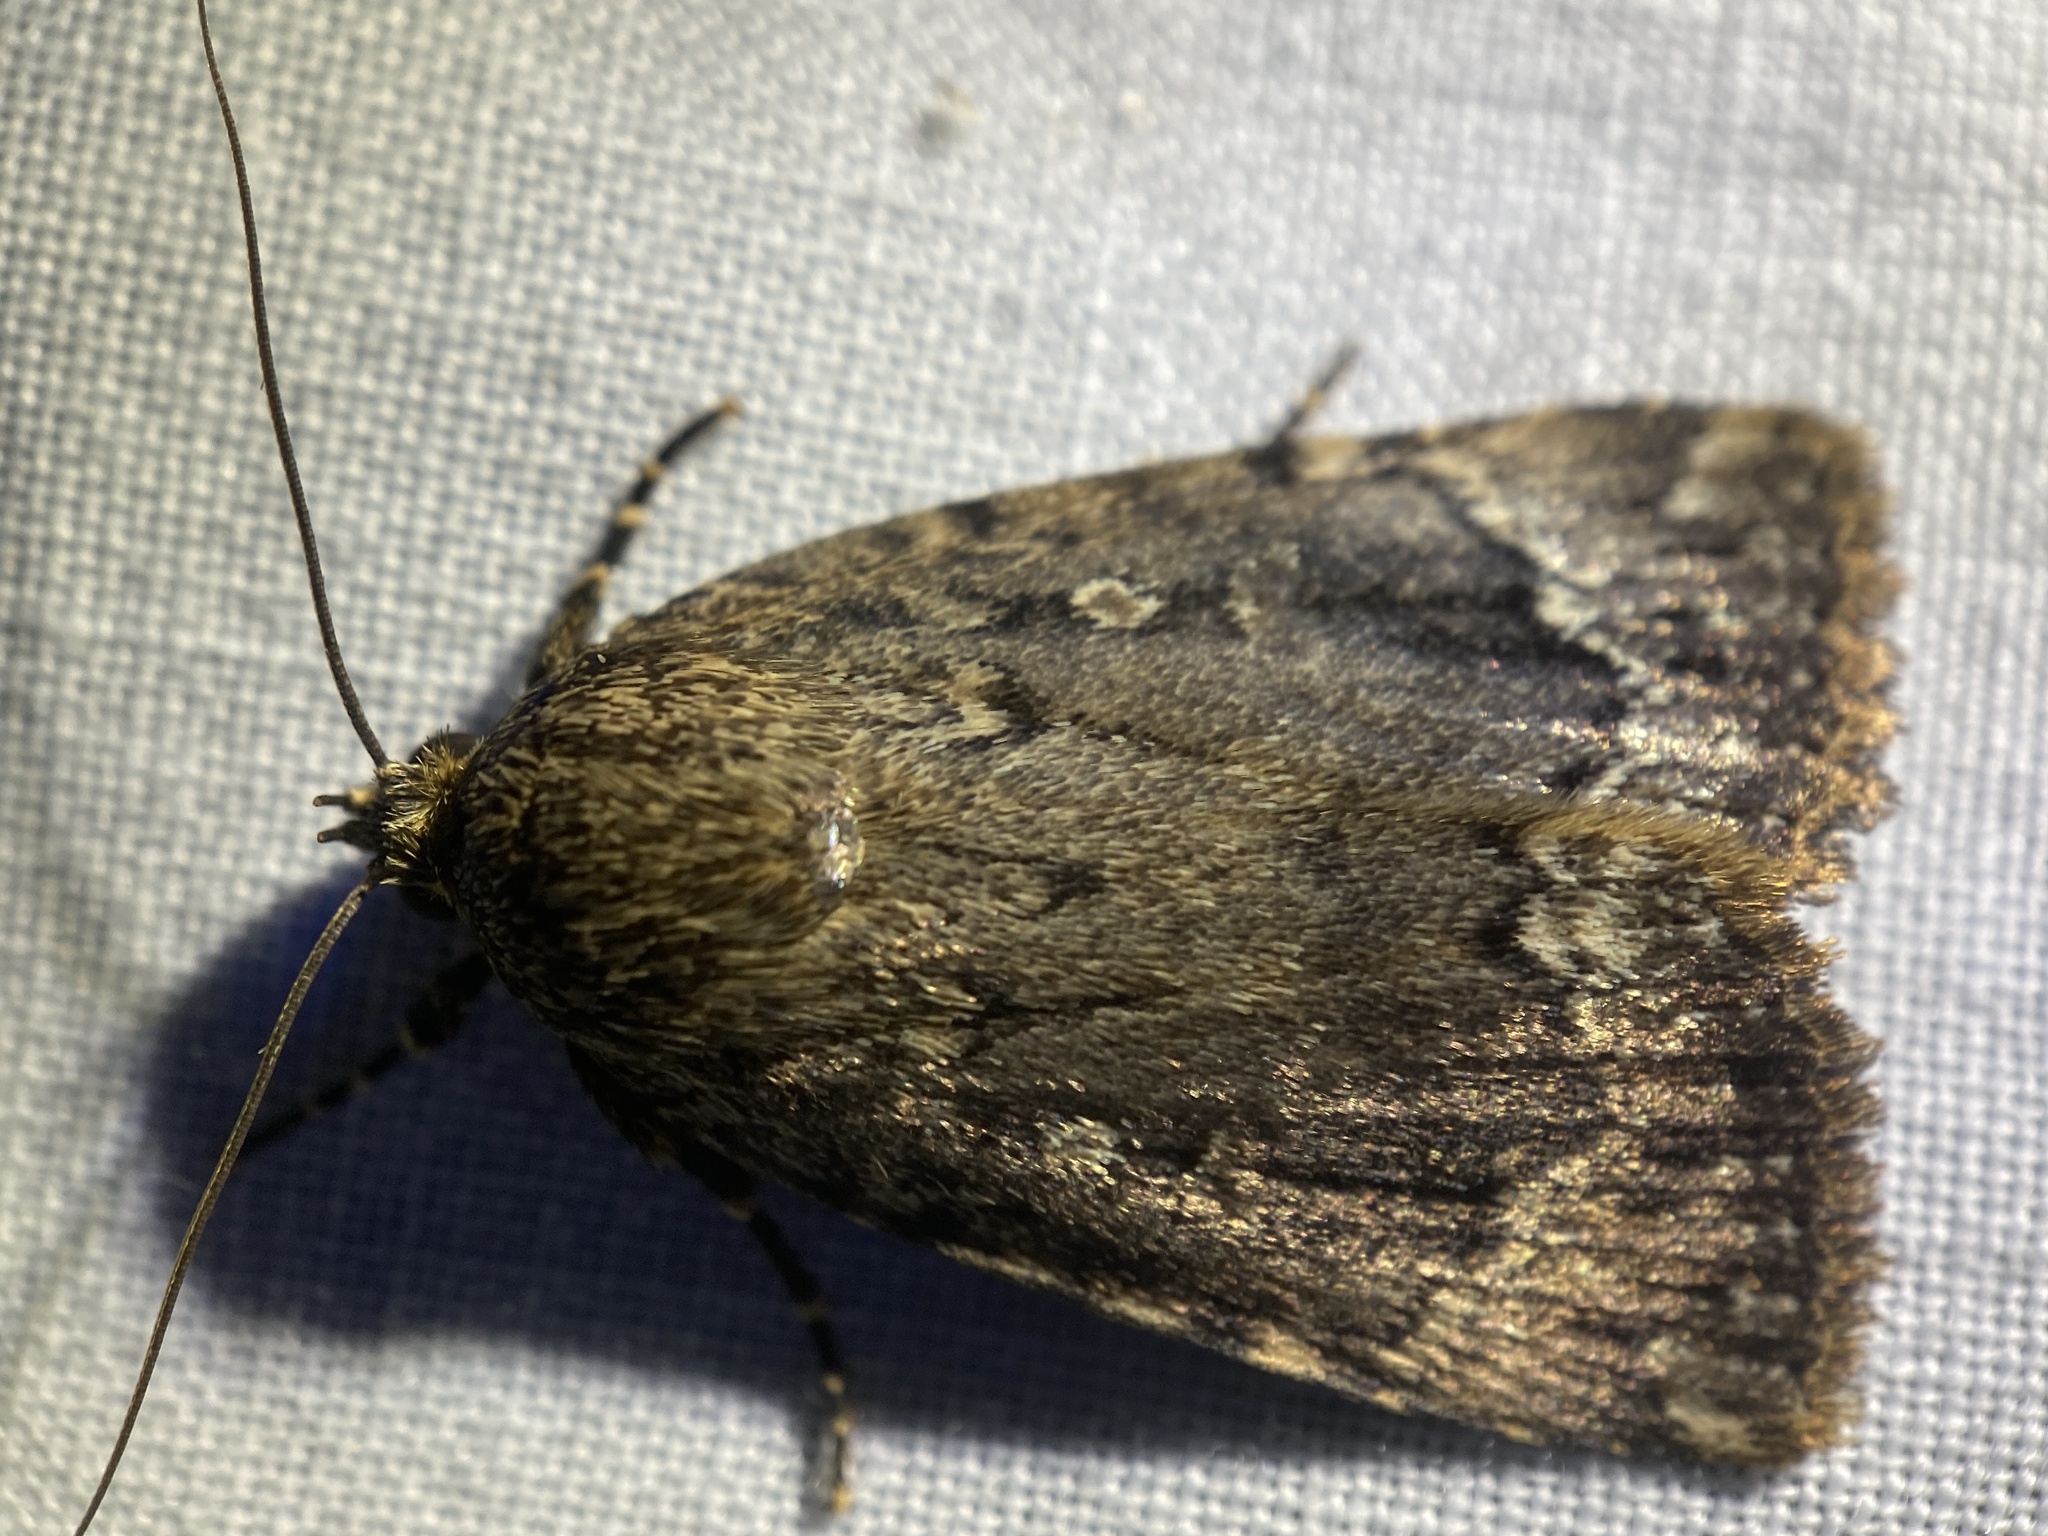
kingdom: Animalia
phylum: Arthropoda
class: Insecta
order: Lepidoptera
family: Noctuidae
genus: Amphipyra
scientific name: Amphipyra pyramidoides
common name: American copper underwing
